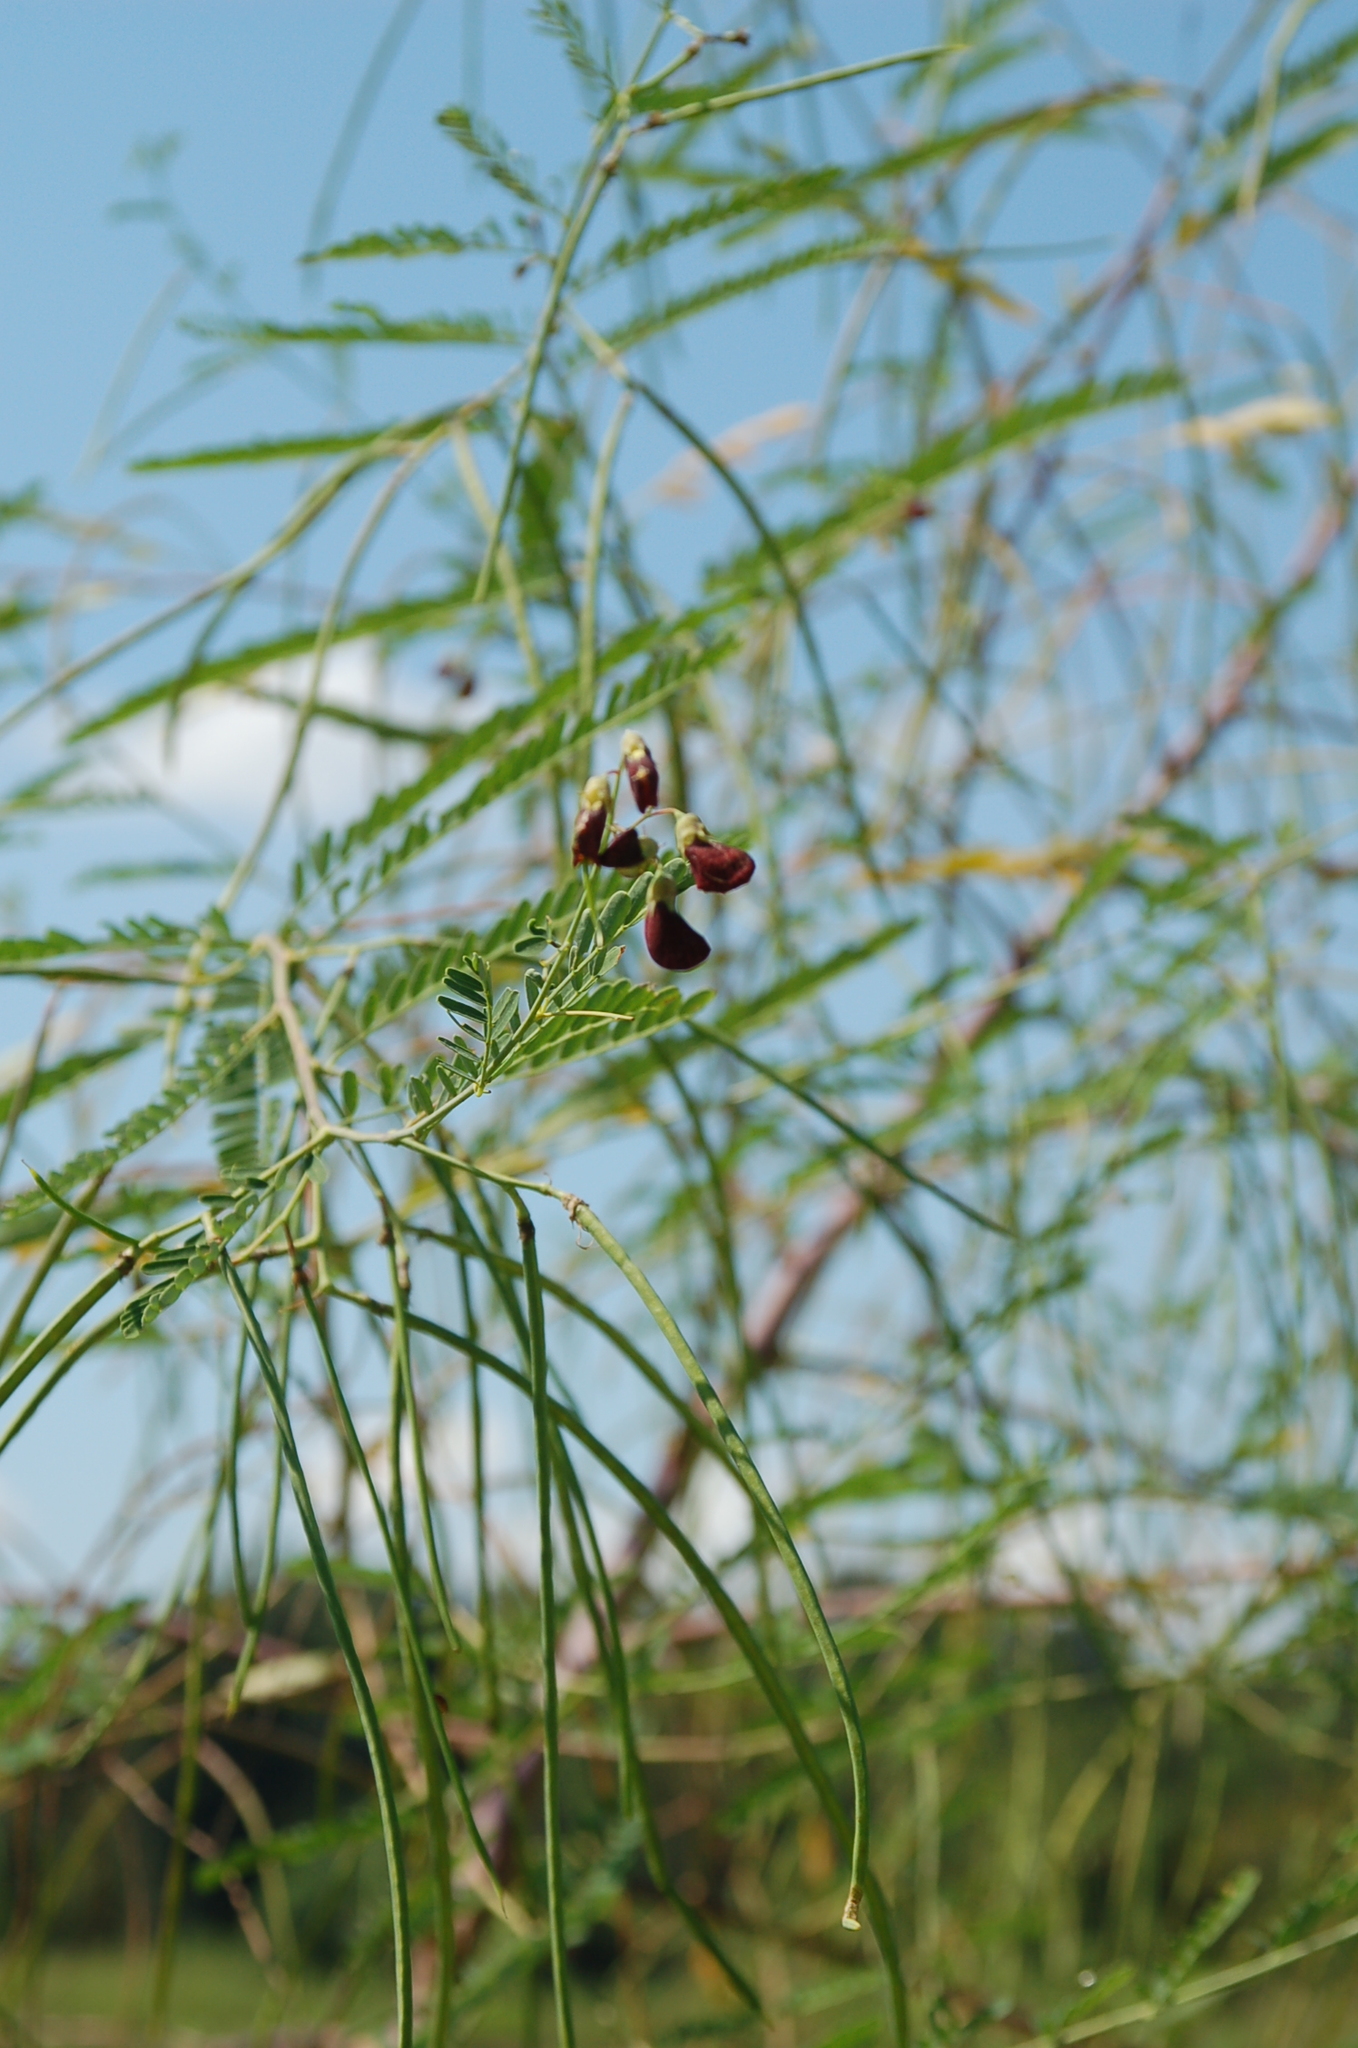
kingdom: Plantae
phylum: Tracheophyta
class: Magnoliopsida
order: Fabales
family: Fabaceae
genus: Sesbania
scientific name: Sesbania herbacea
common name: Bigpod sesbania
